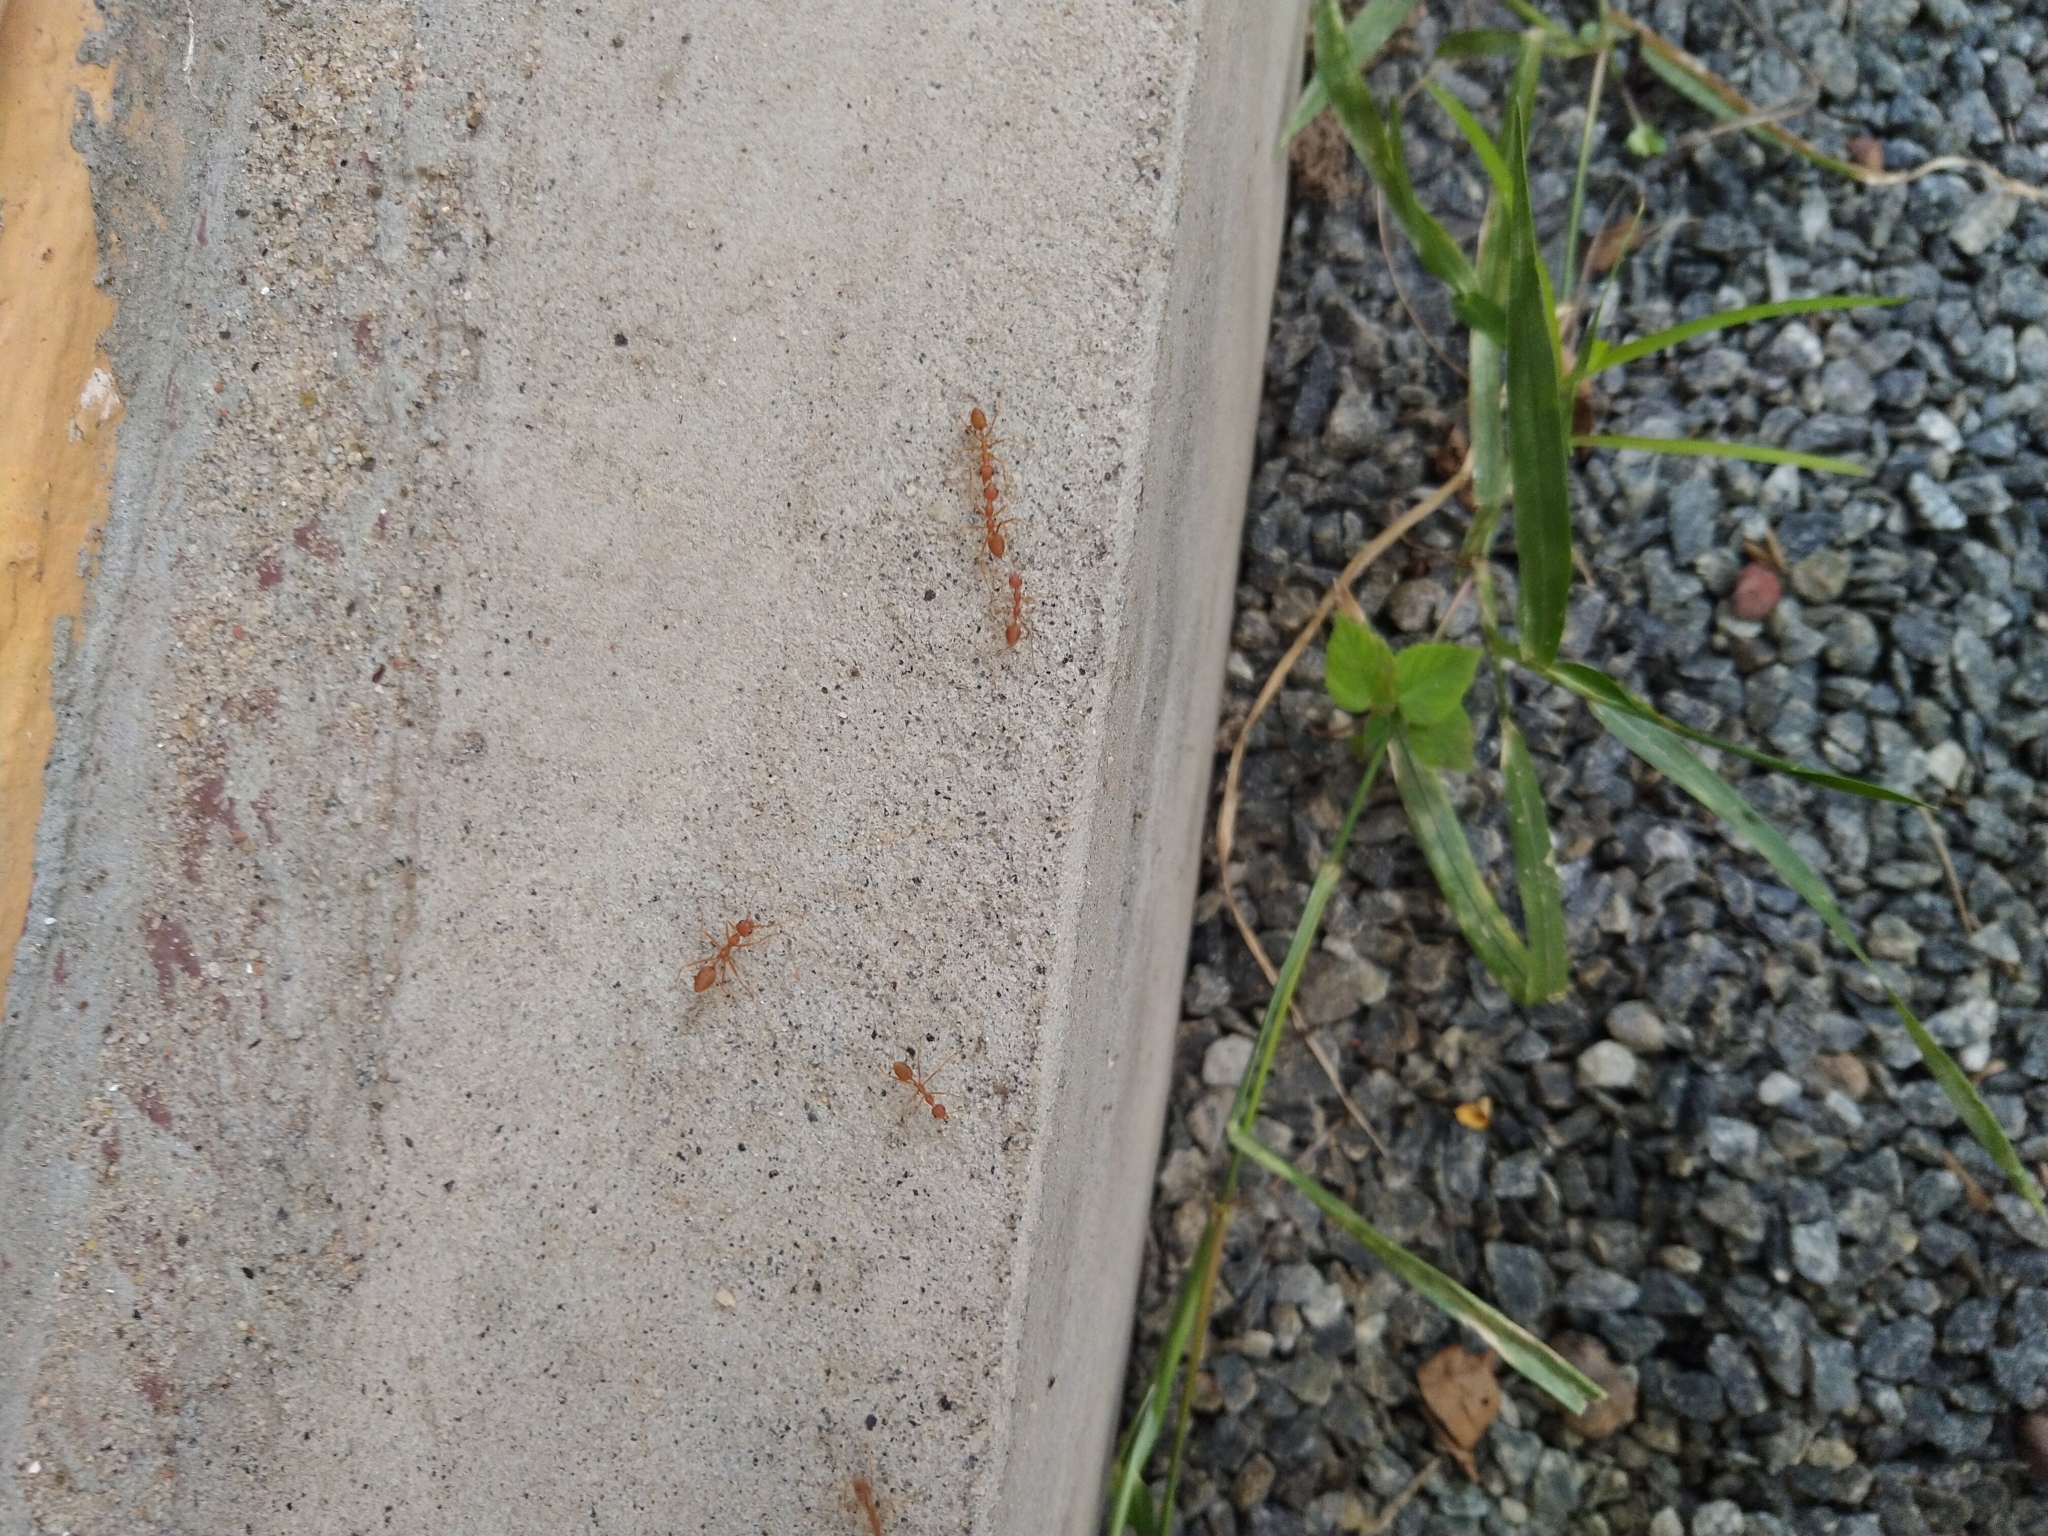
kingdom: Animalia
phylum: Arthropoda
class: Insecta
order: Hymenoptera
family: Formicidae
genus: Oecophylla
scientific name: Oecophylla smaragdina
